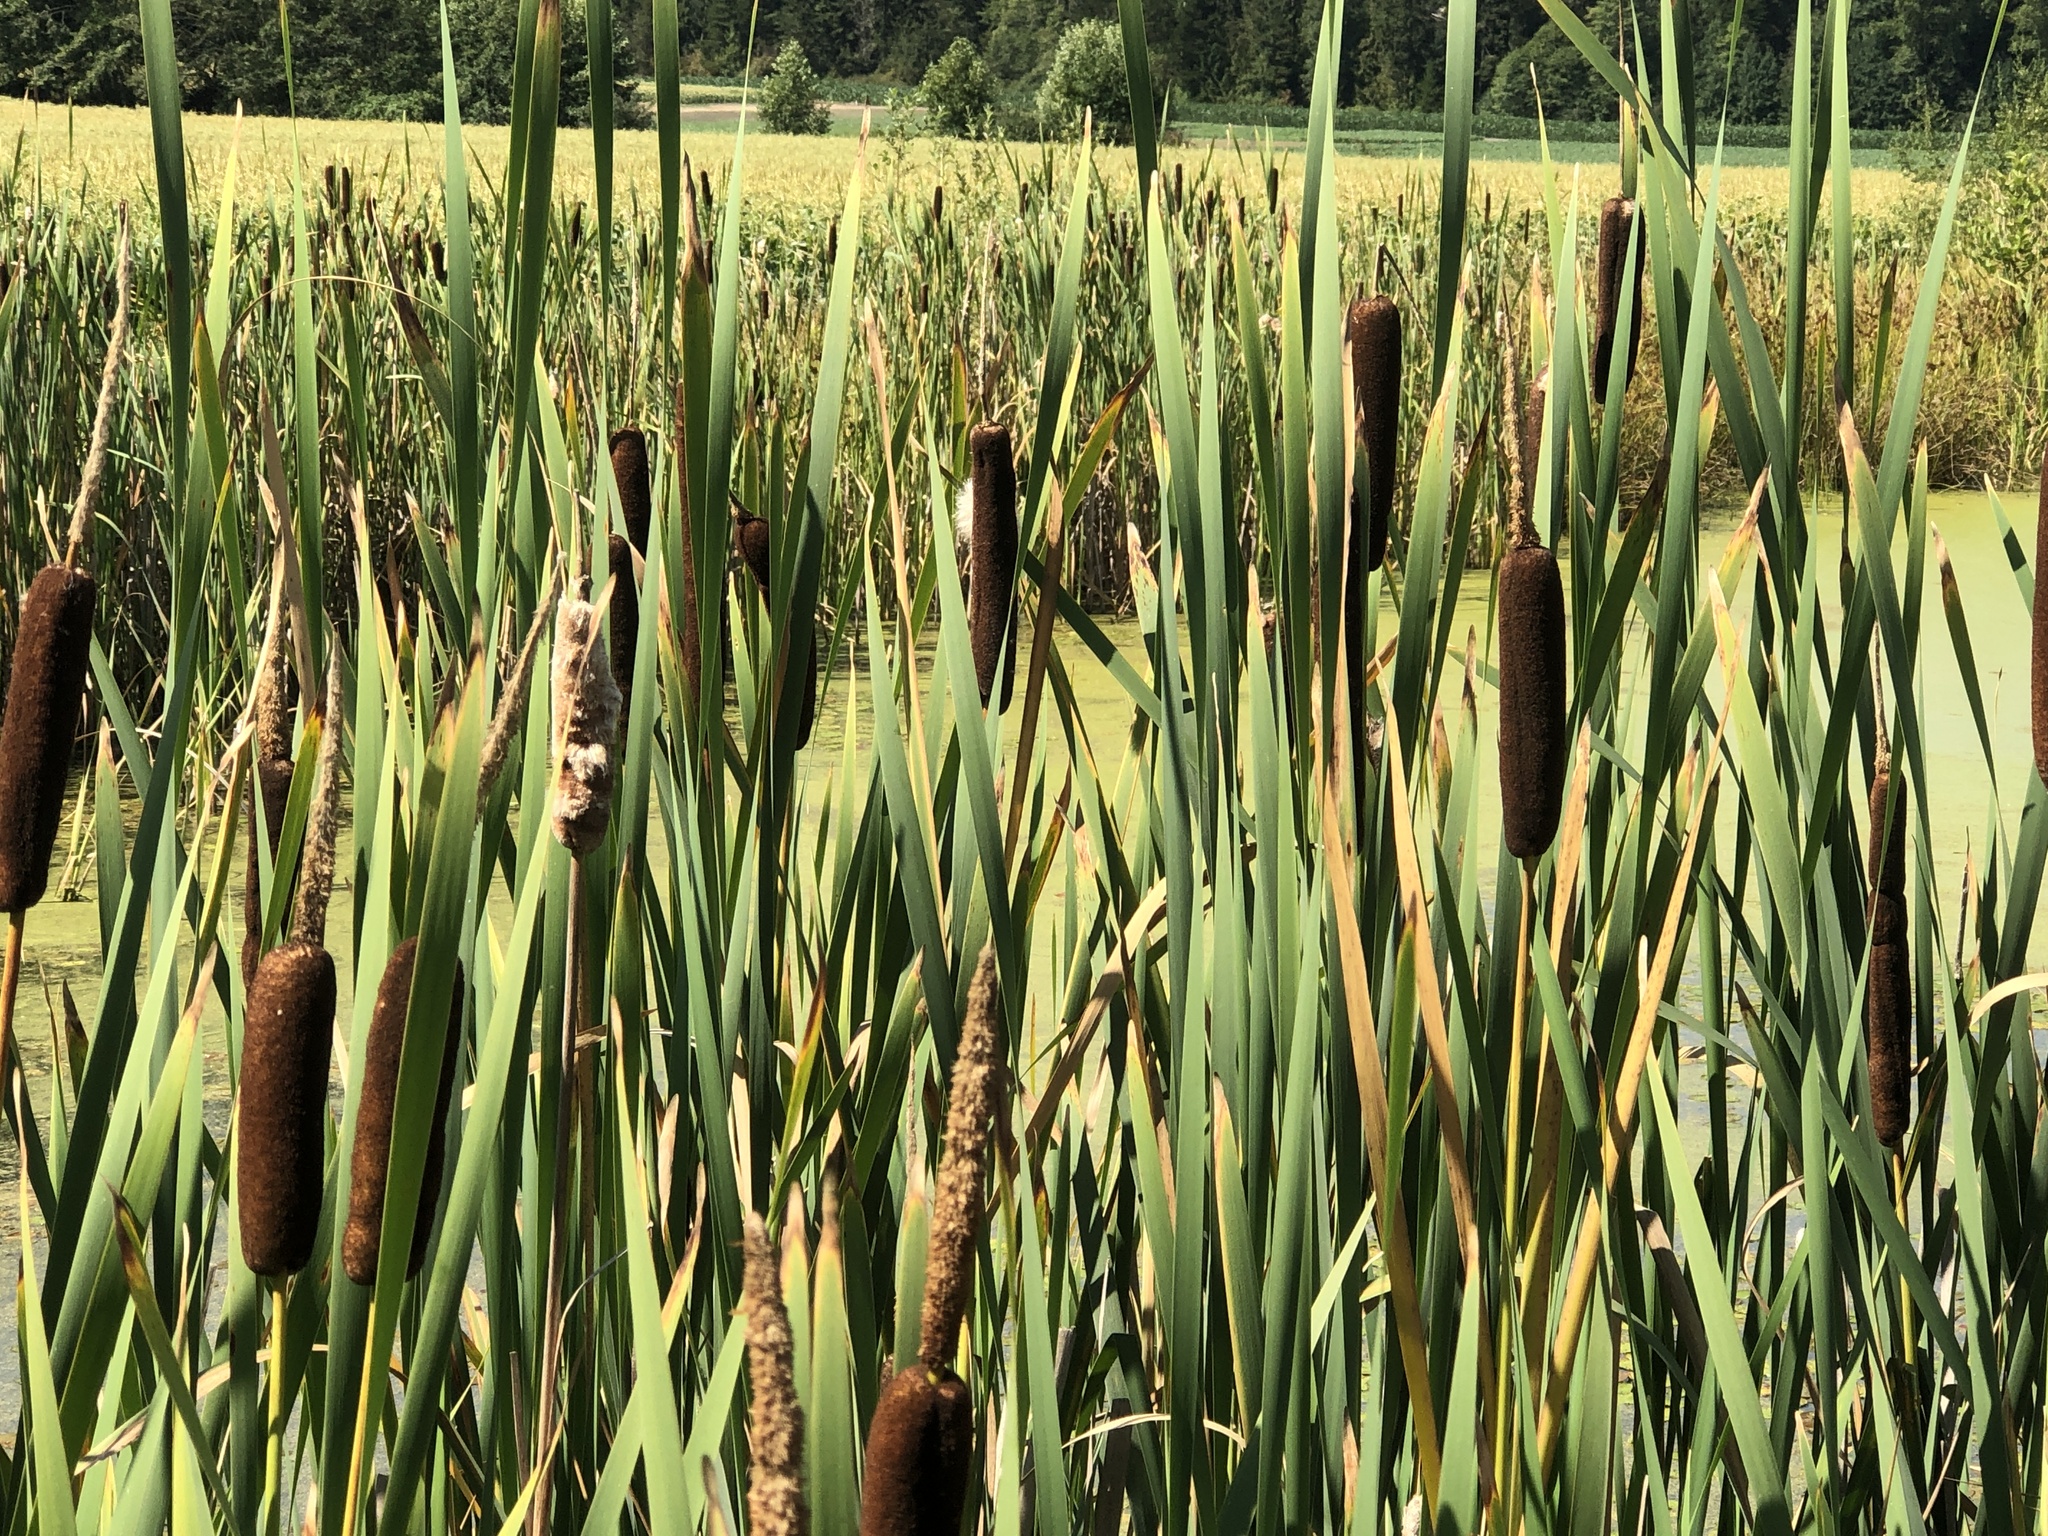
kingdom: Plantae
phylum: Tracheophyta
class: Liliopsida
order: Poales
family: Typhaceae
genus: Typha
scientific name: Typha latifolia
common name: Broadleaf cattail
